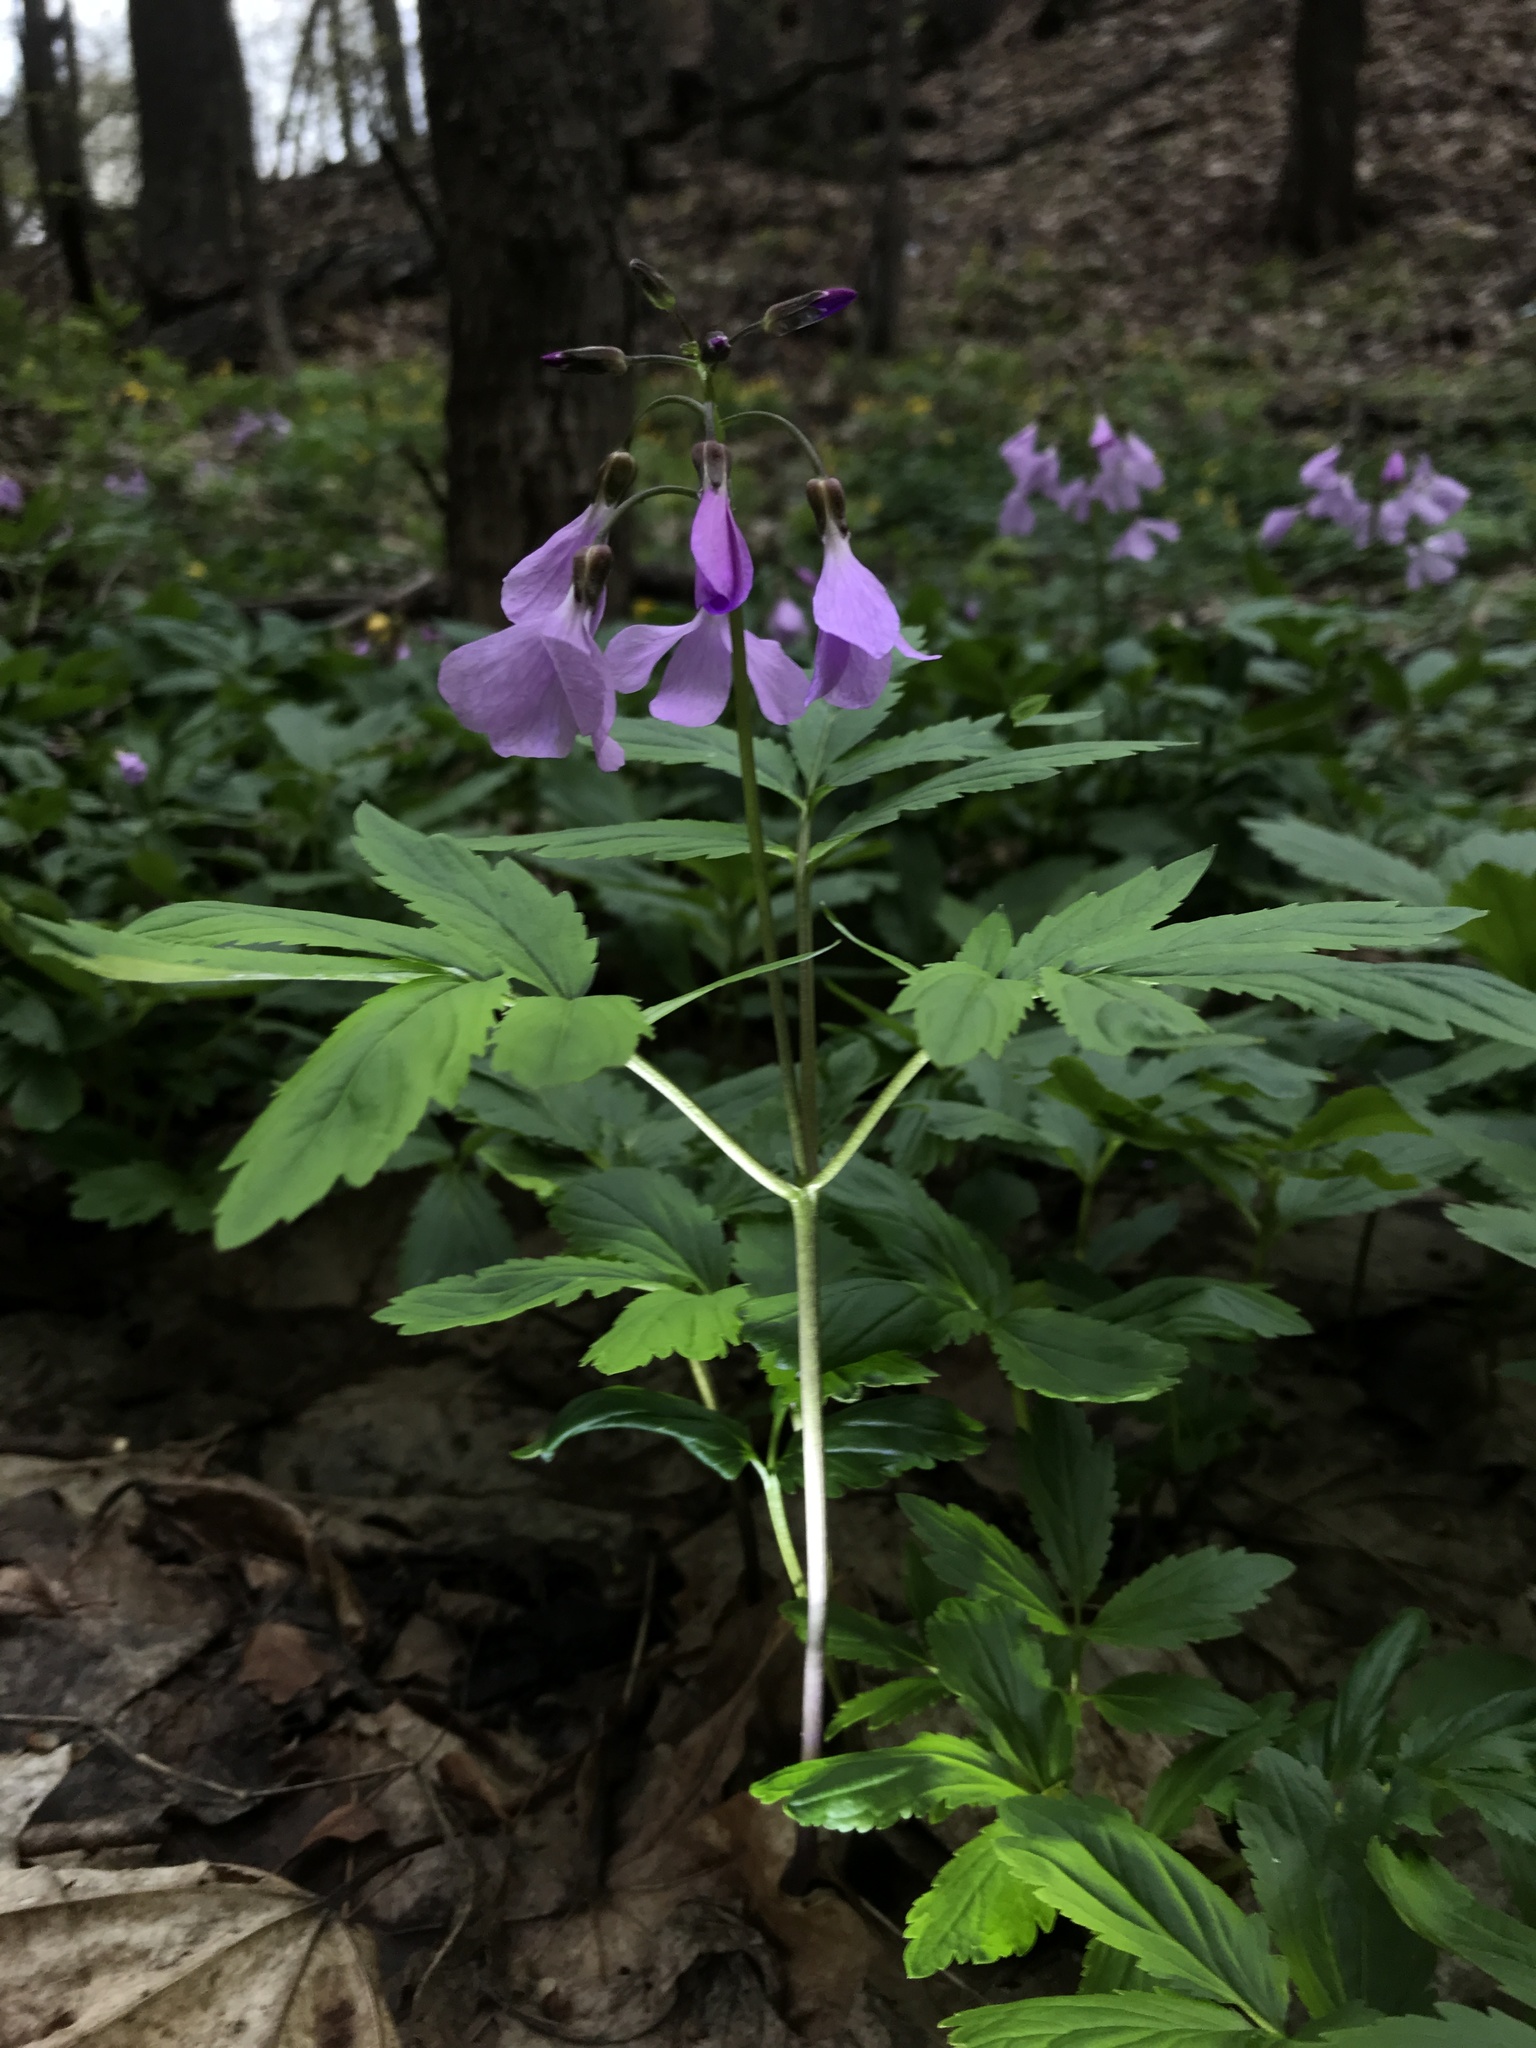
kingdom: Plantae
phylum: Tracheophyta
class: Magnoliopsida
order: Brassicales
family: Brassicaceae
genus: Cardamine
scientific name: Cardamine quinquefolia
